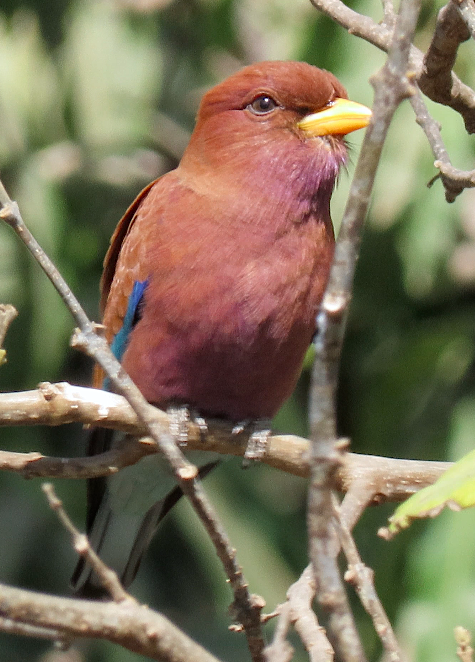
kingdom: Animalia
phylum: Chordata
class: Aves
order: Coraciiformes
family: Coraciidae
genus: Eurystomus
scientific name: Eurystomus glaucurus
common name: Broad-billed roller
